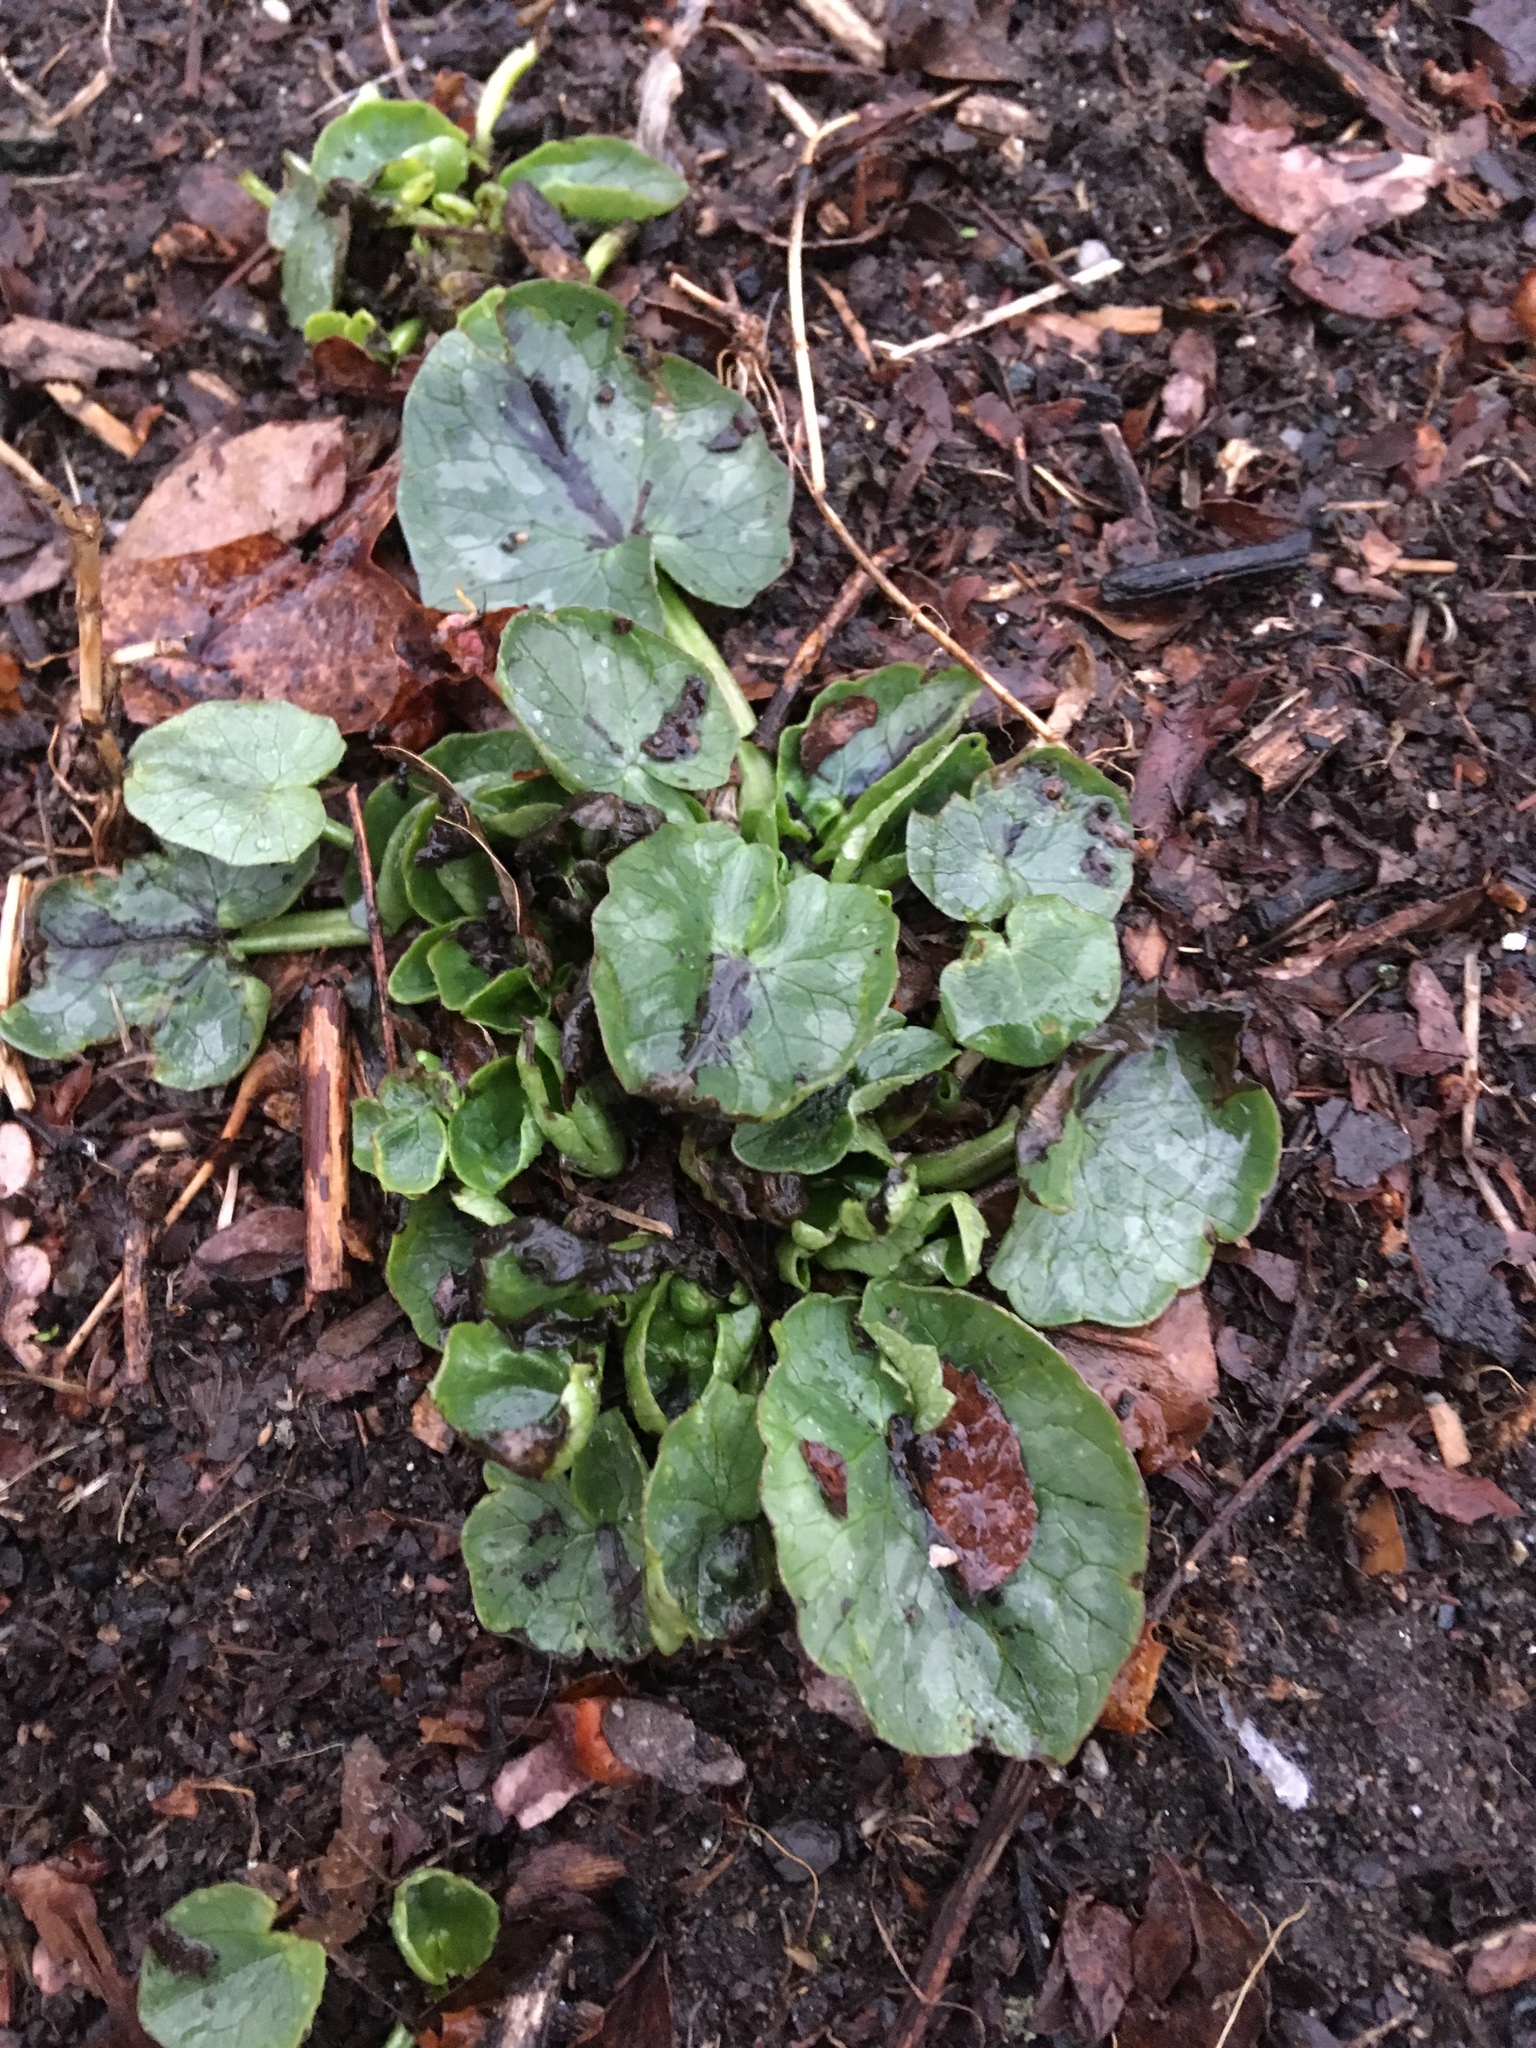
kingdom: Plantae
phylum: Tracheophyta
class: Magnoliopsida
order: Ranunculales
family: Ranunculaceae
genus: Ficaria
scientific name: Ficaria verna
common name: Lesser celandine
